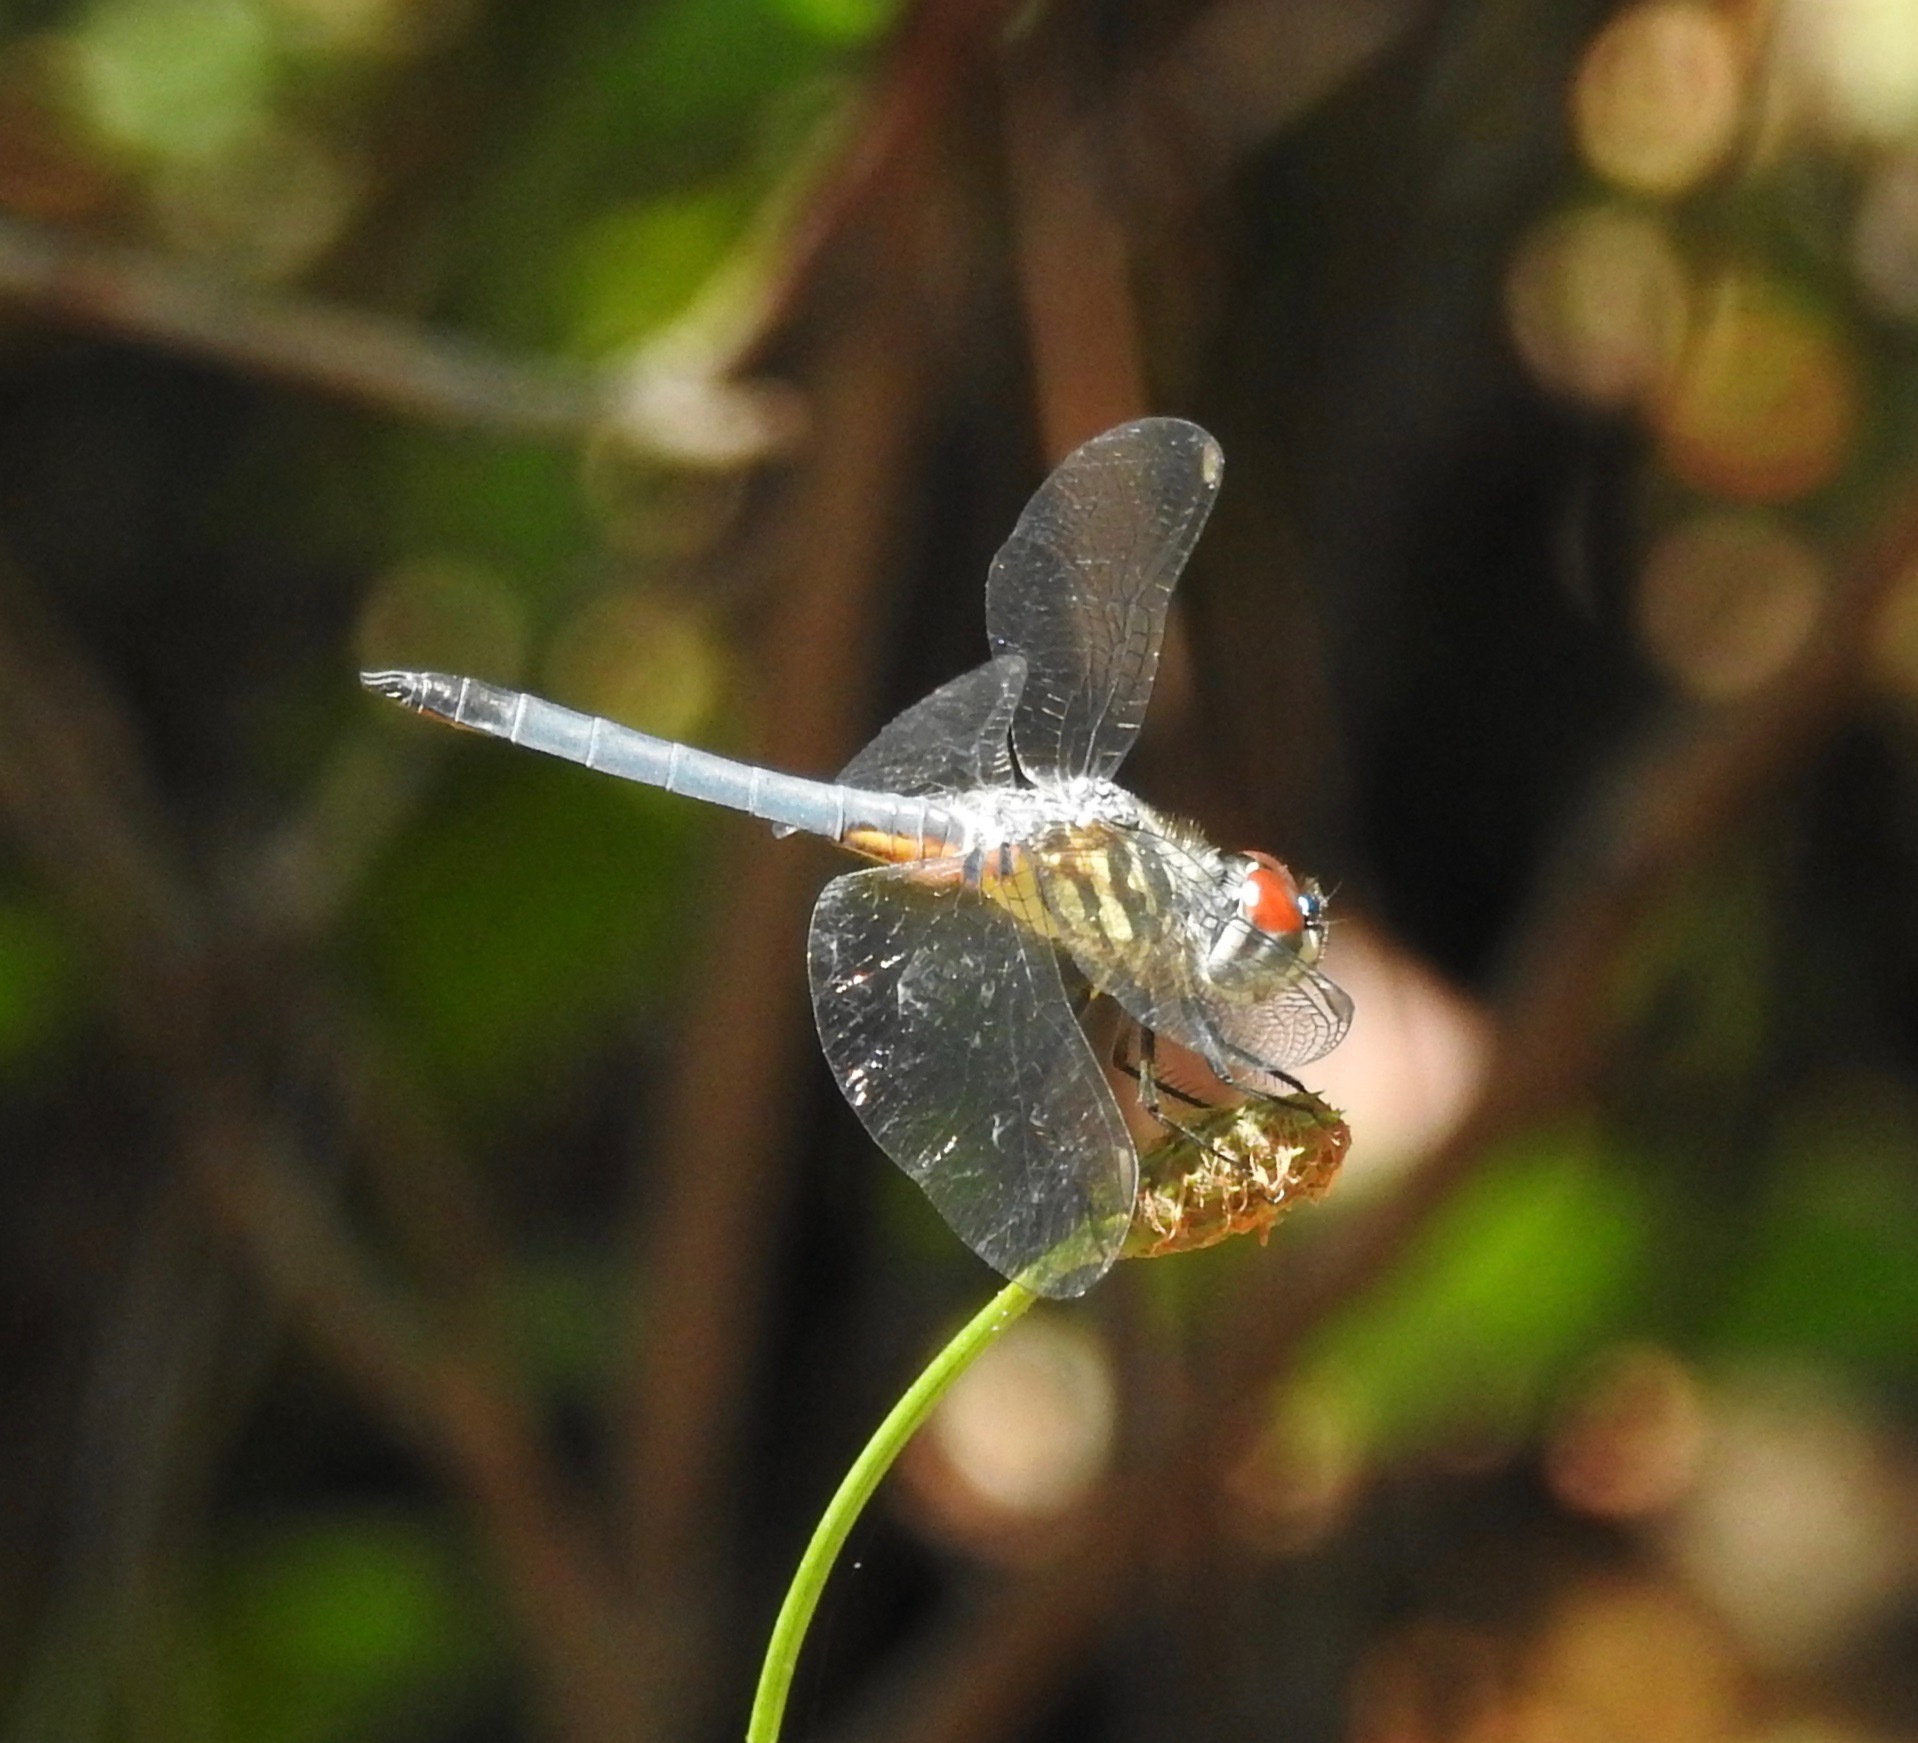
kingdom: Animalia
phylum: Arthropoda
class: Insecta
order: Odonata
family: Libellulidae
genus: Pachydiplax
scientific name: Pachydiplax longipennis
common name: Blue dasher
